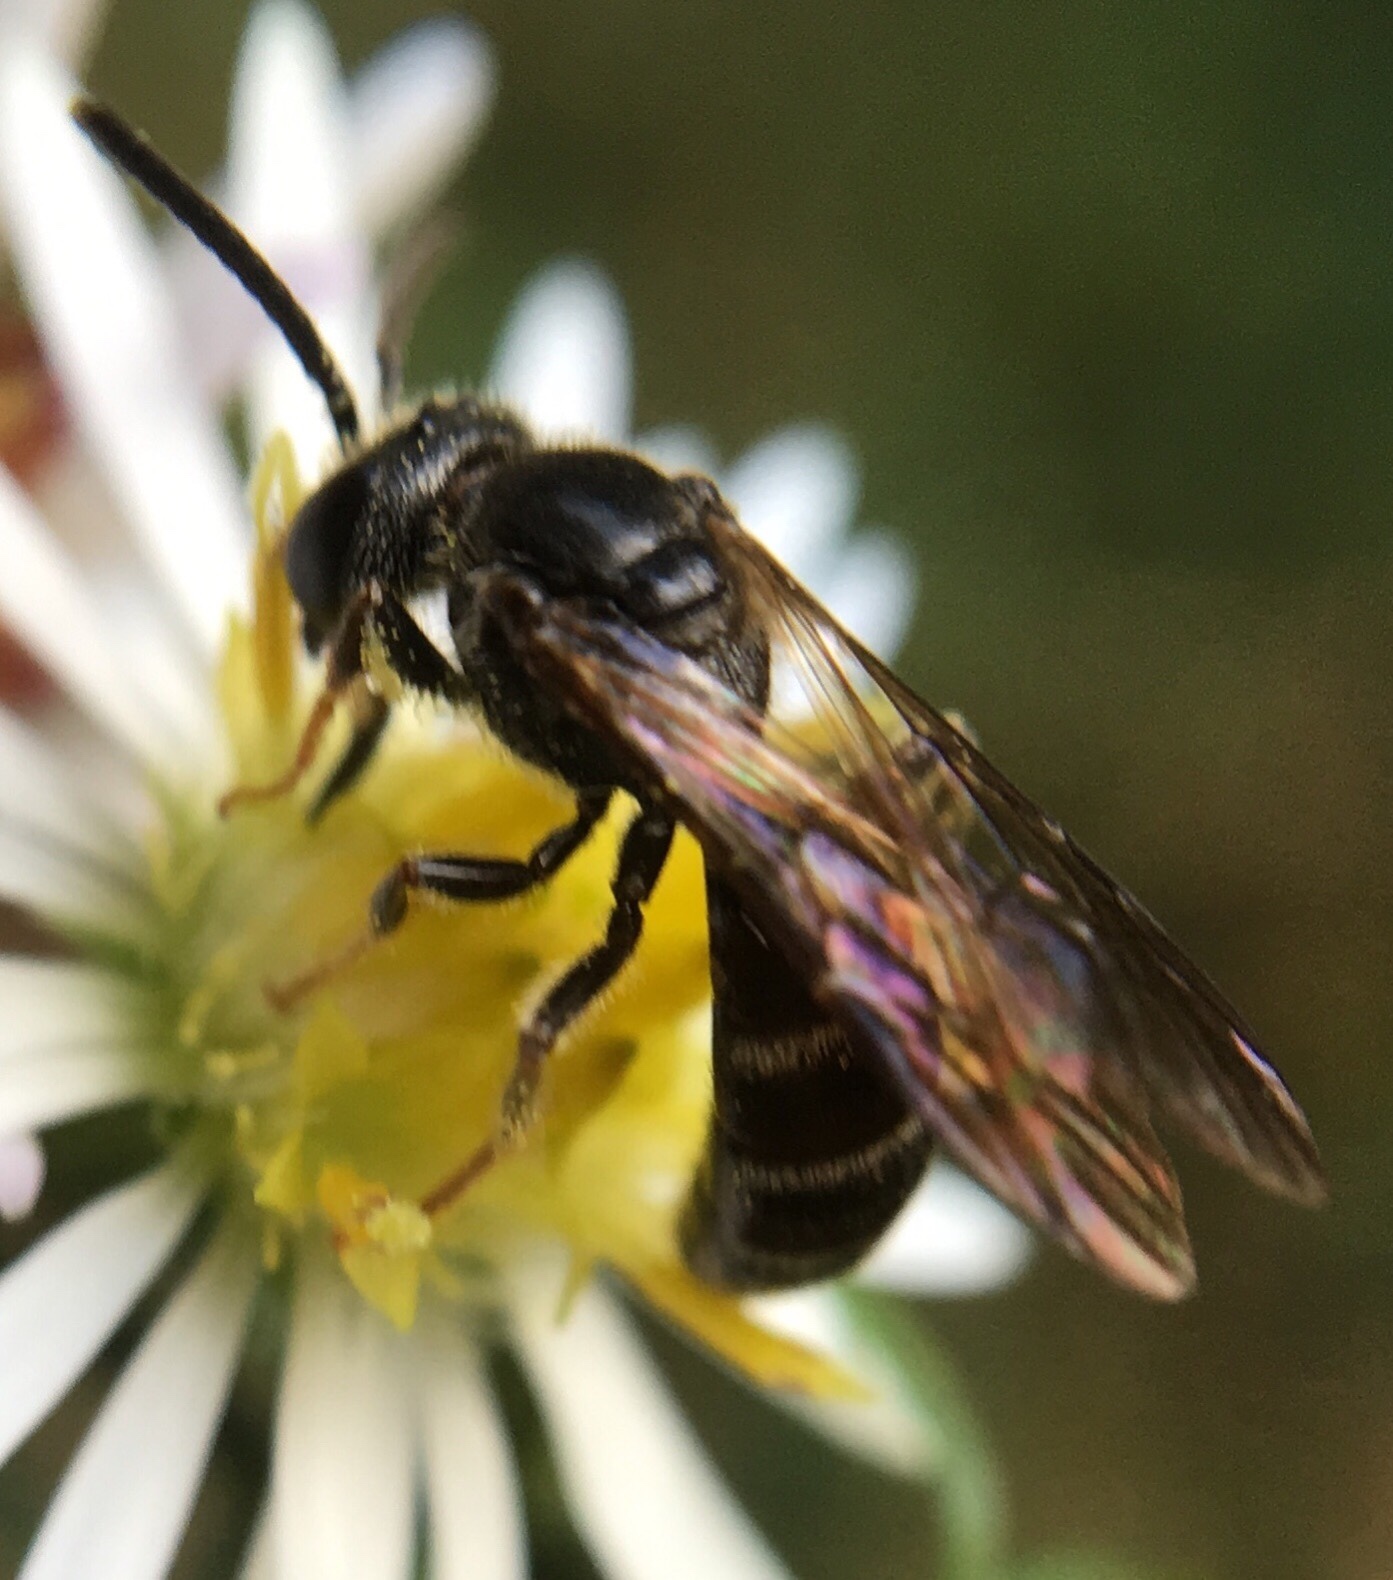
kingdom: Animalia
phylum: Arthropoda
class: Insecta
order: Hymenoptera
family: Halictidae
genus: Lasioglossum
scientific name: Lasioglossum fuscipenne
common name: Brown-winged sweat bee
